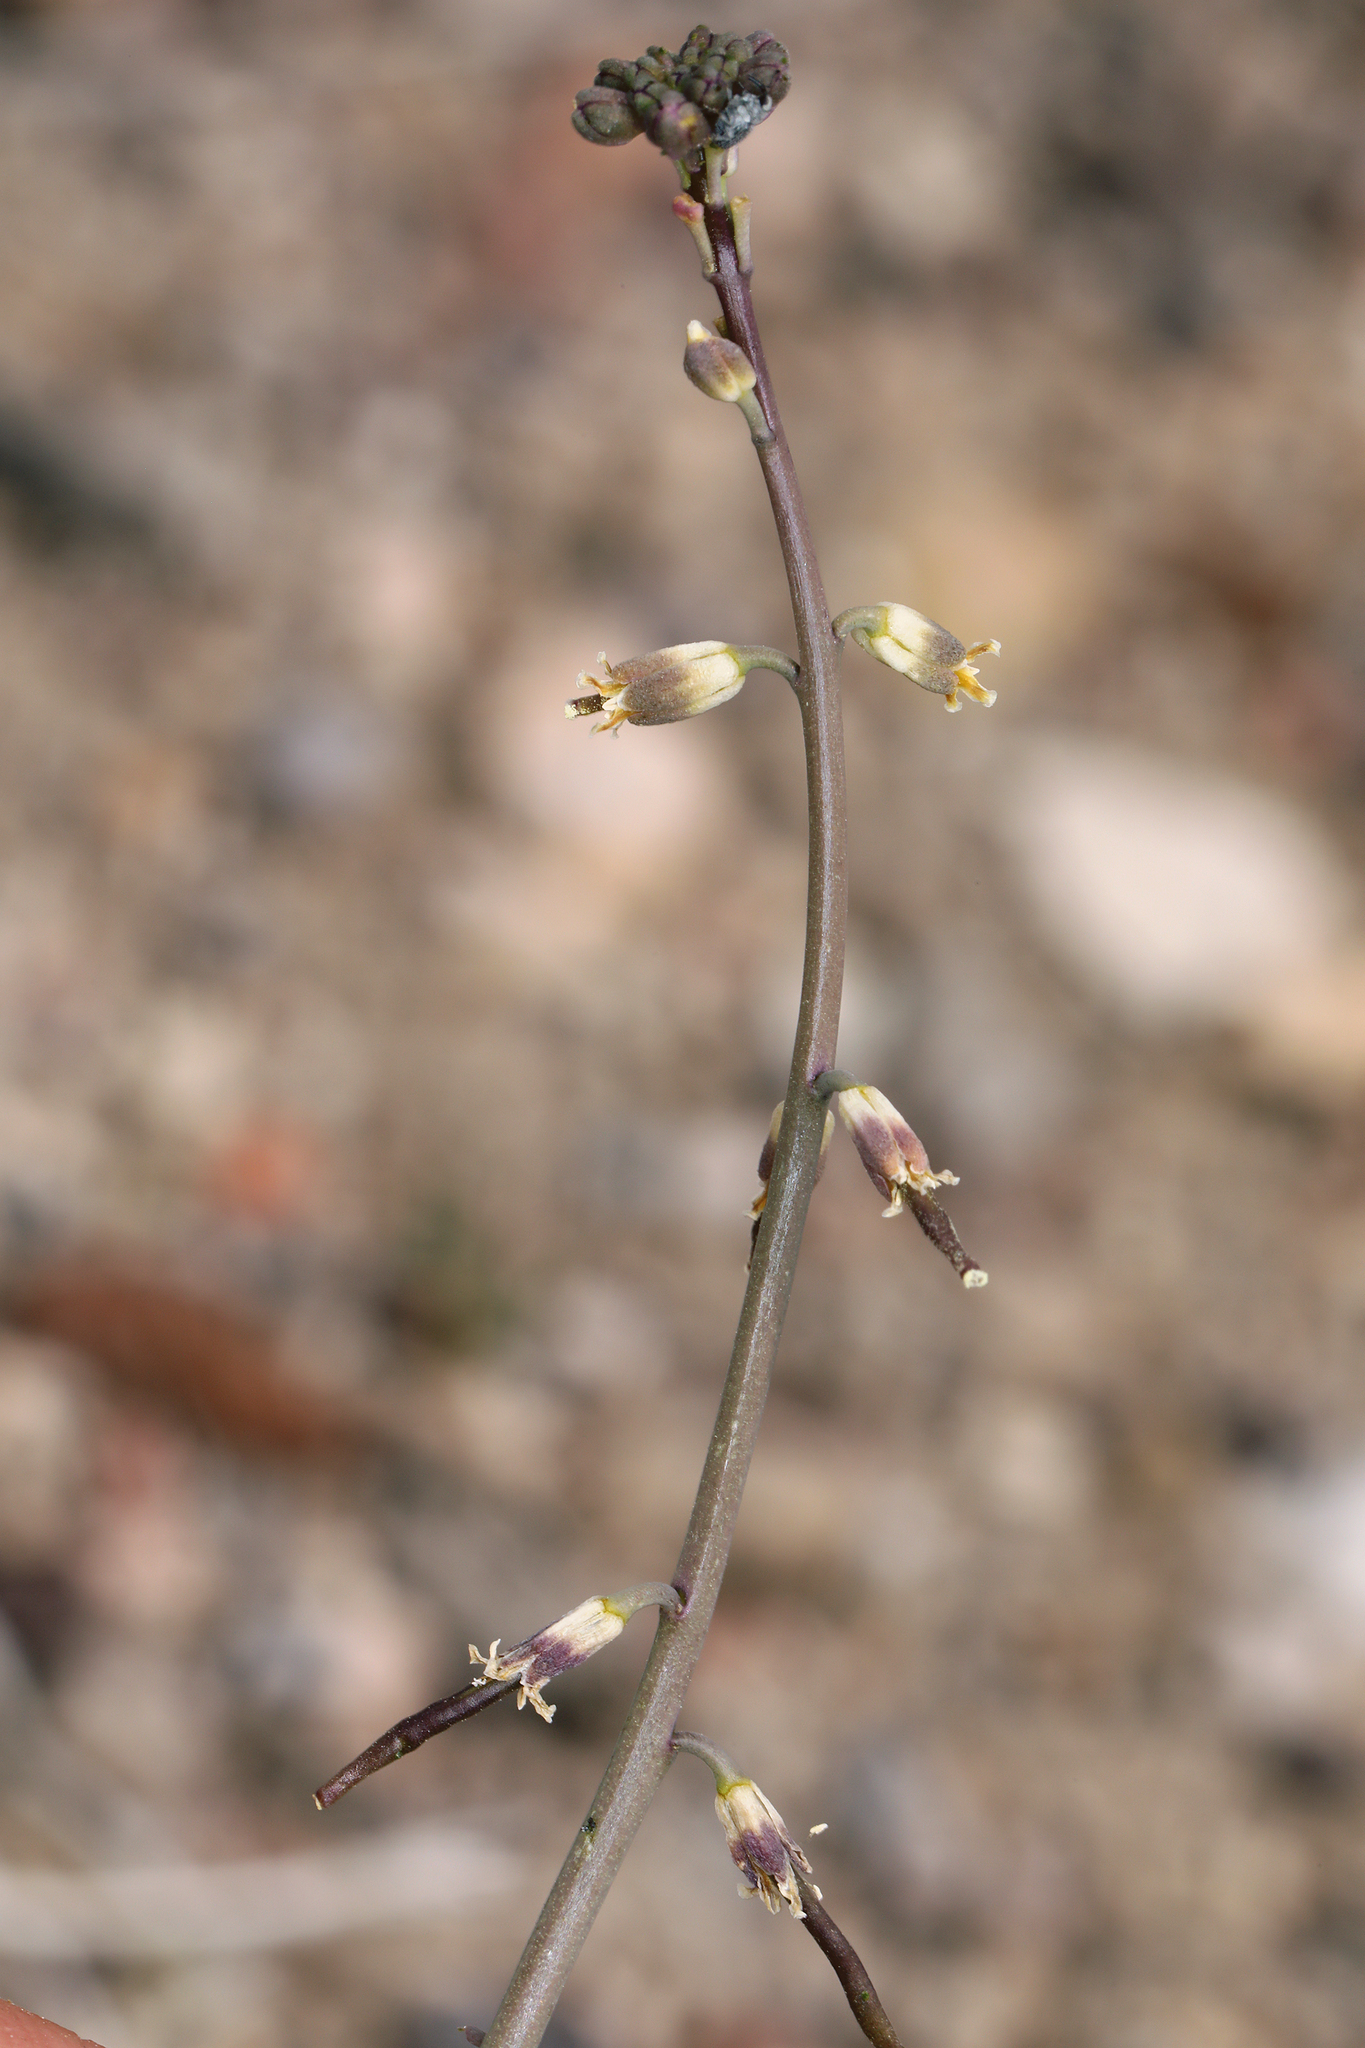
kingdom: Plantae
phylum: Tracheophyta
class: Magnoliopsida
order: Brassicales
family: Brassicaceae
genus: Streptanthus
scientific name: Streptanthus longirostris
